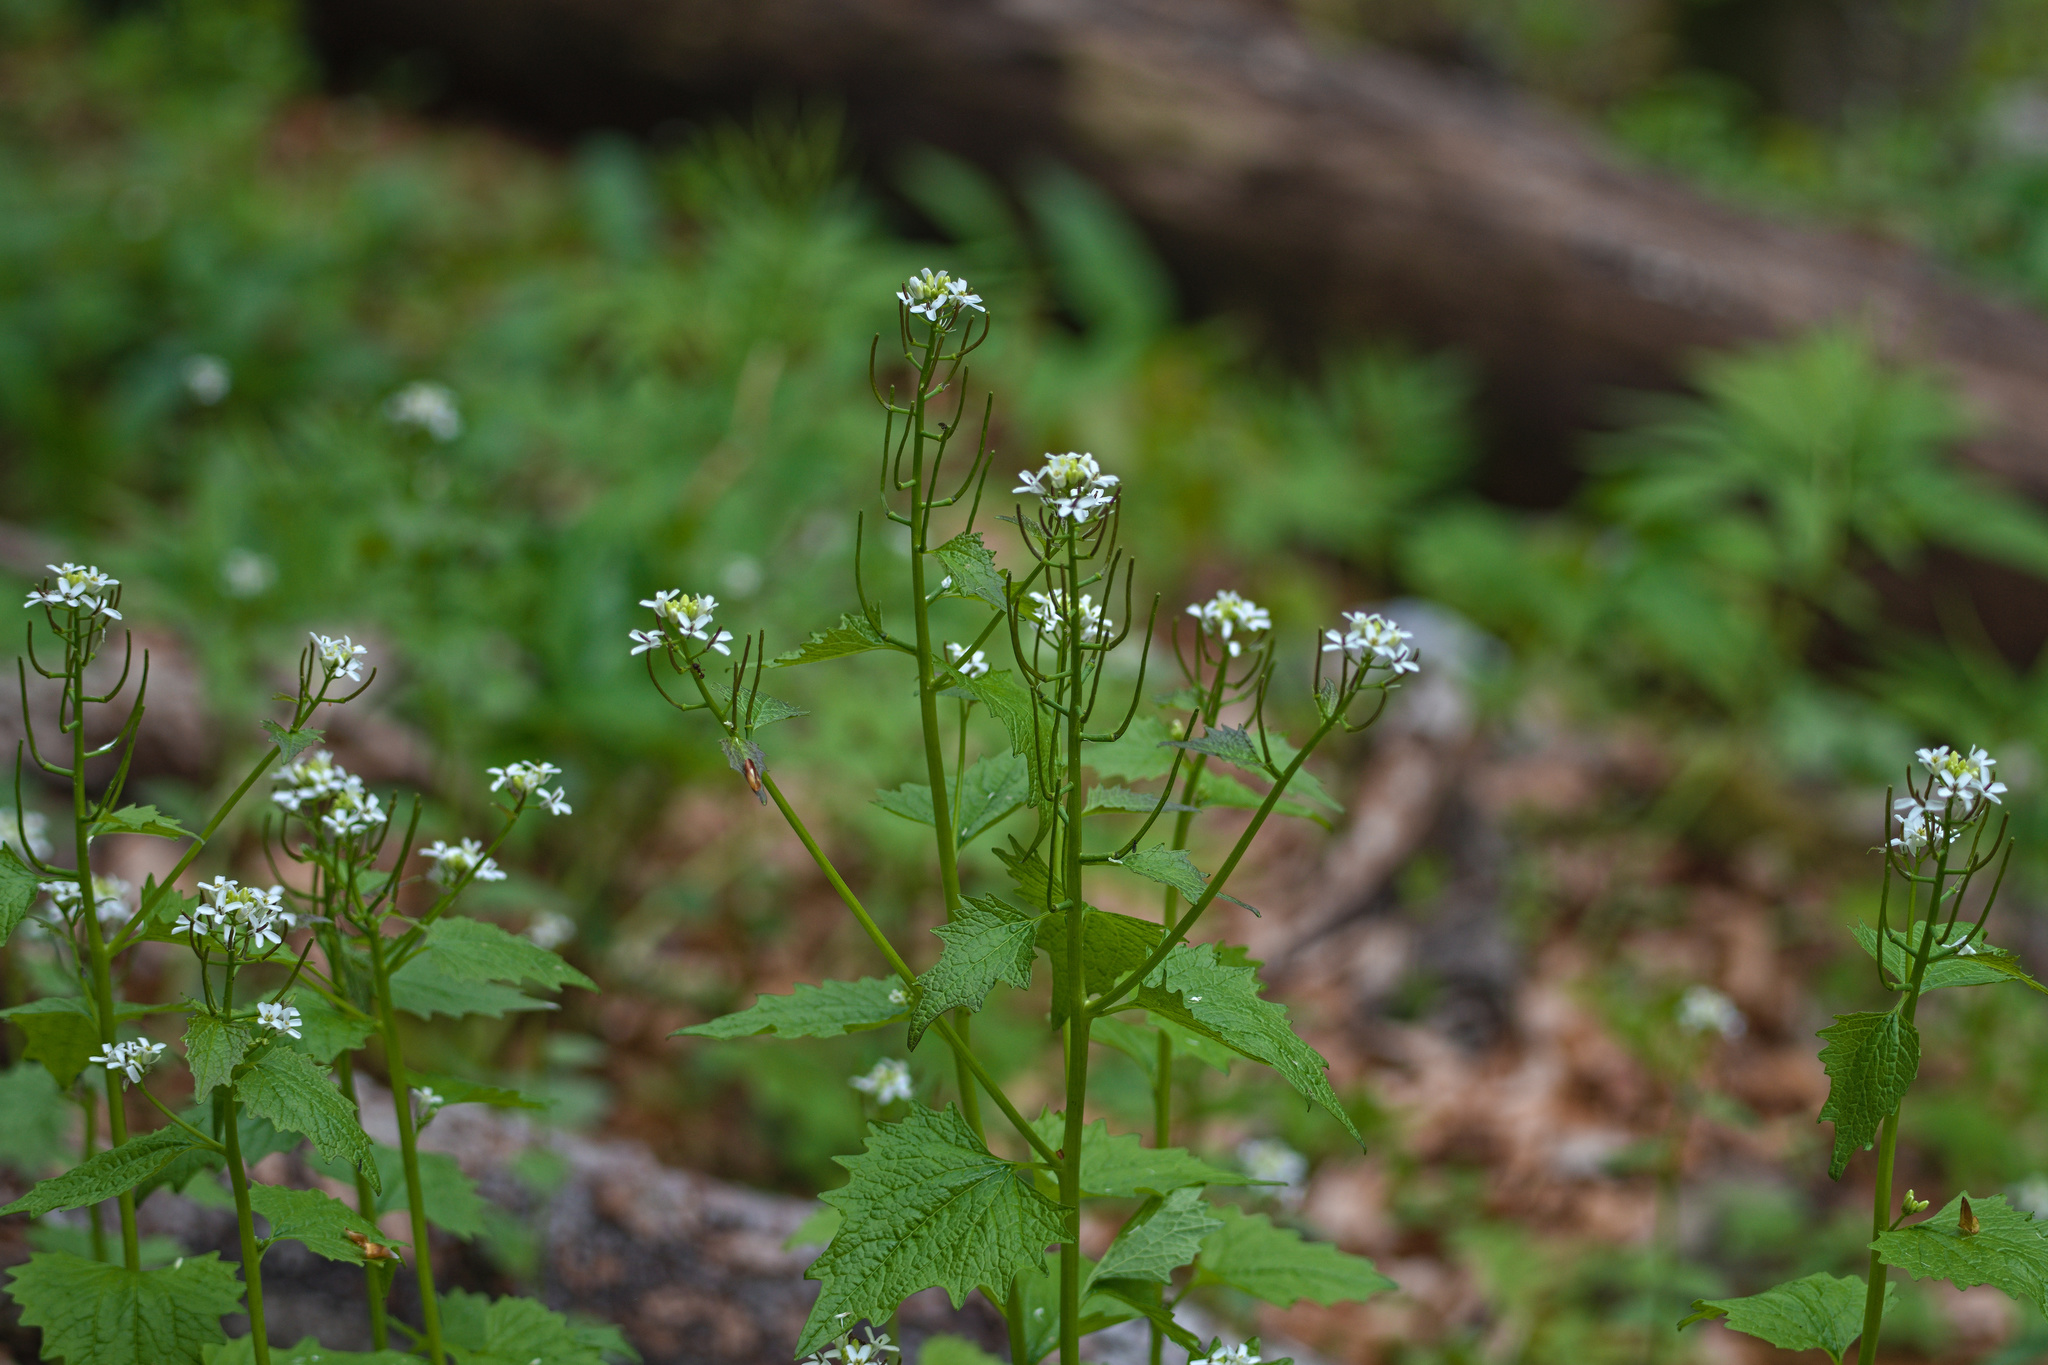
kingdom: Plantae
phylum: Tracheophyta
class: Magnoliopsida
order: Brassicales
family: Brassicaceae
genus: Alliaria
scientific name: Alliaria petiolata
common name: Garlic mustard
